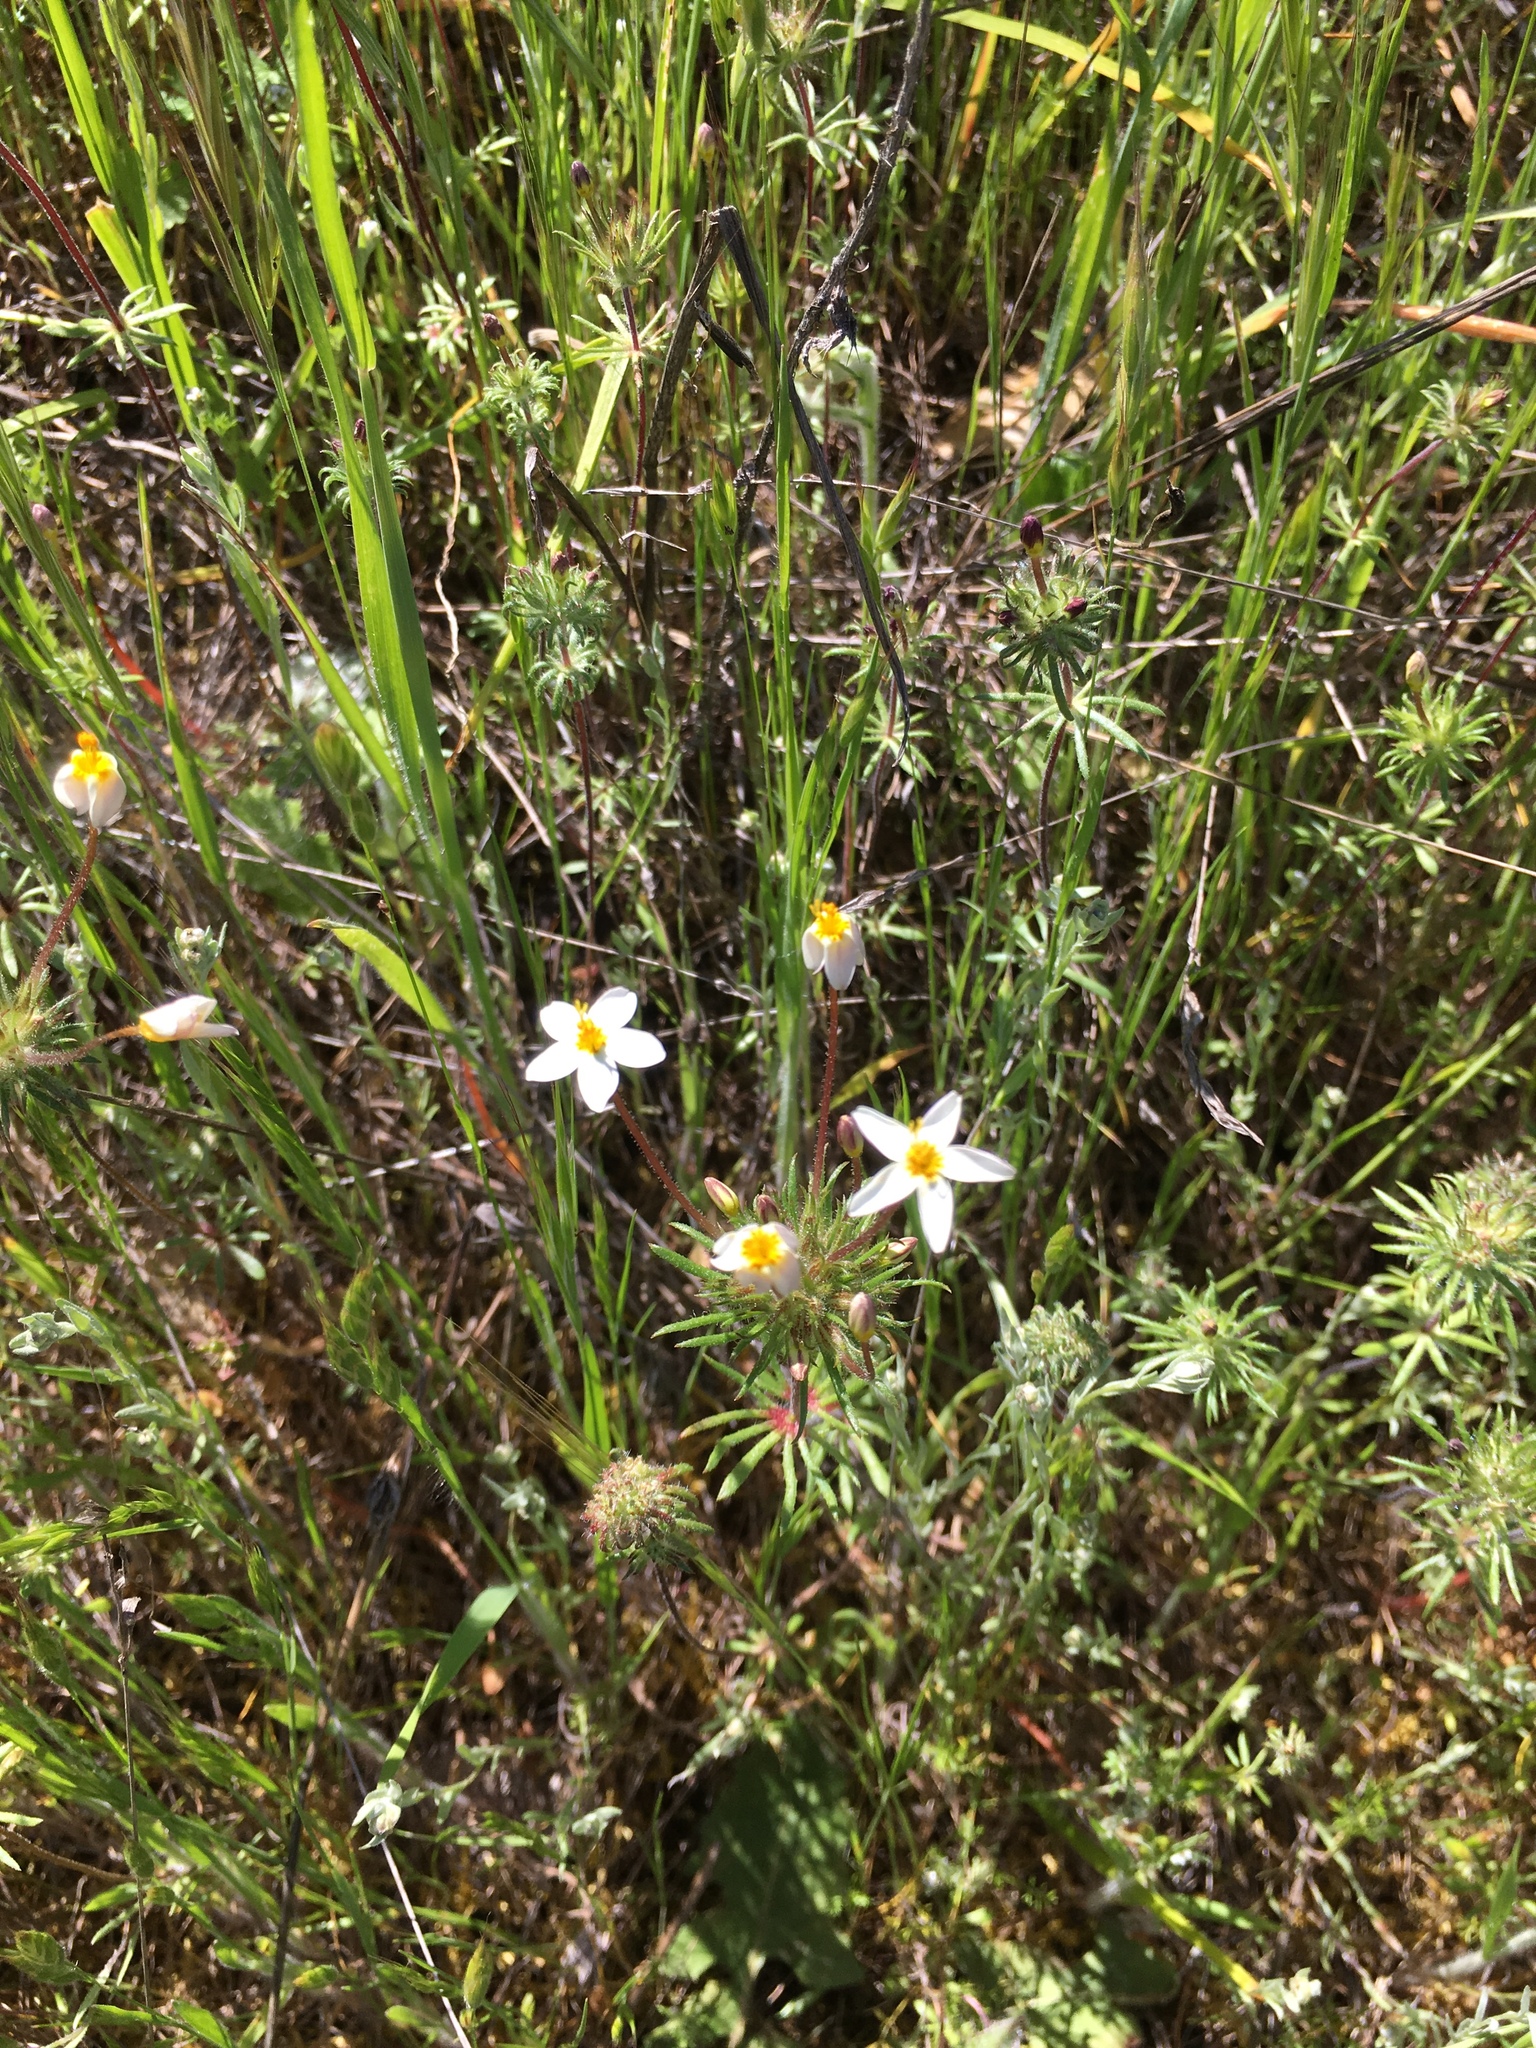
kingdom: Plantae
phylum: Tracheophyta
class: Magnoliopsida
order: Ericales
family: Polemoniaceae
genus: Leptosiphon
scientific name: Leptosiphon parviflorus
